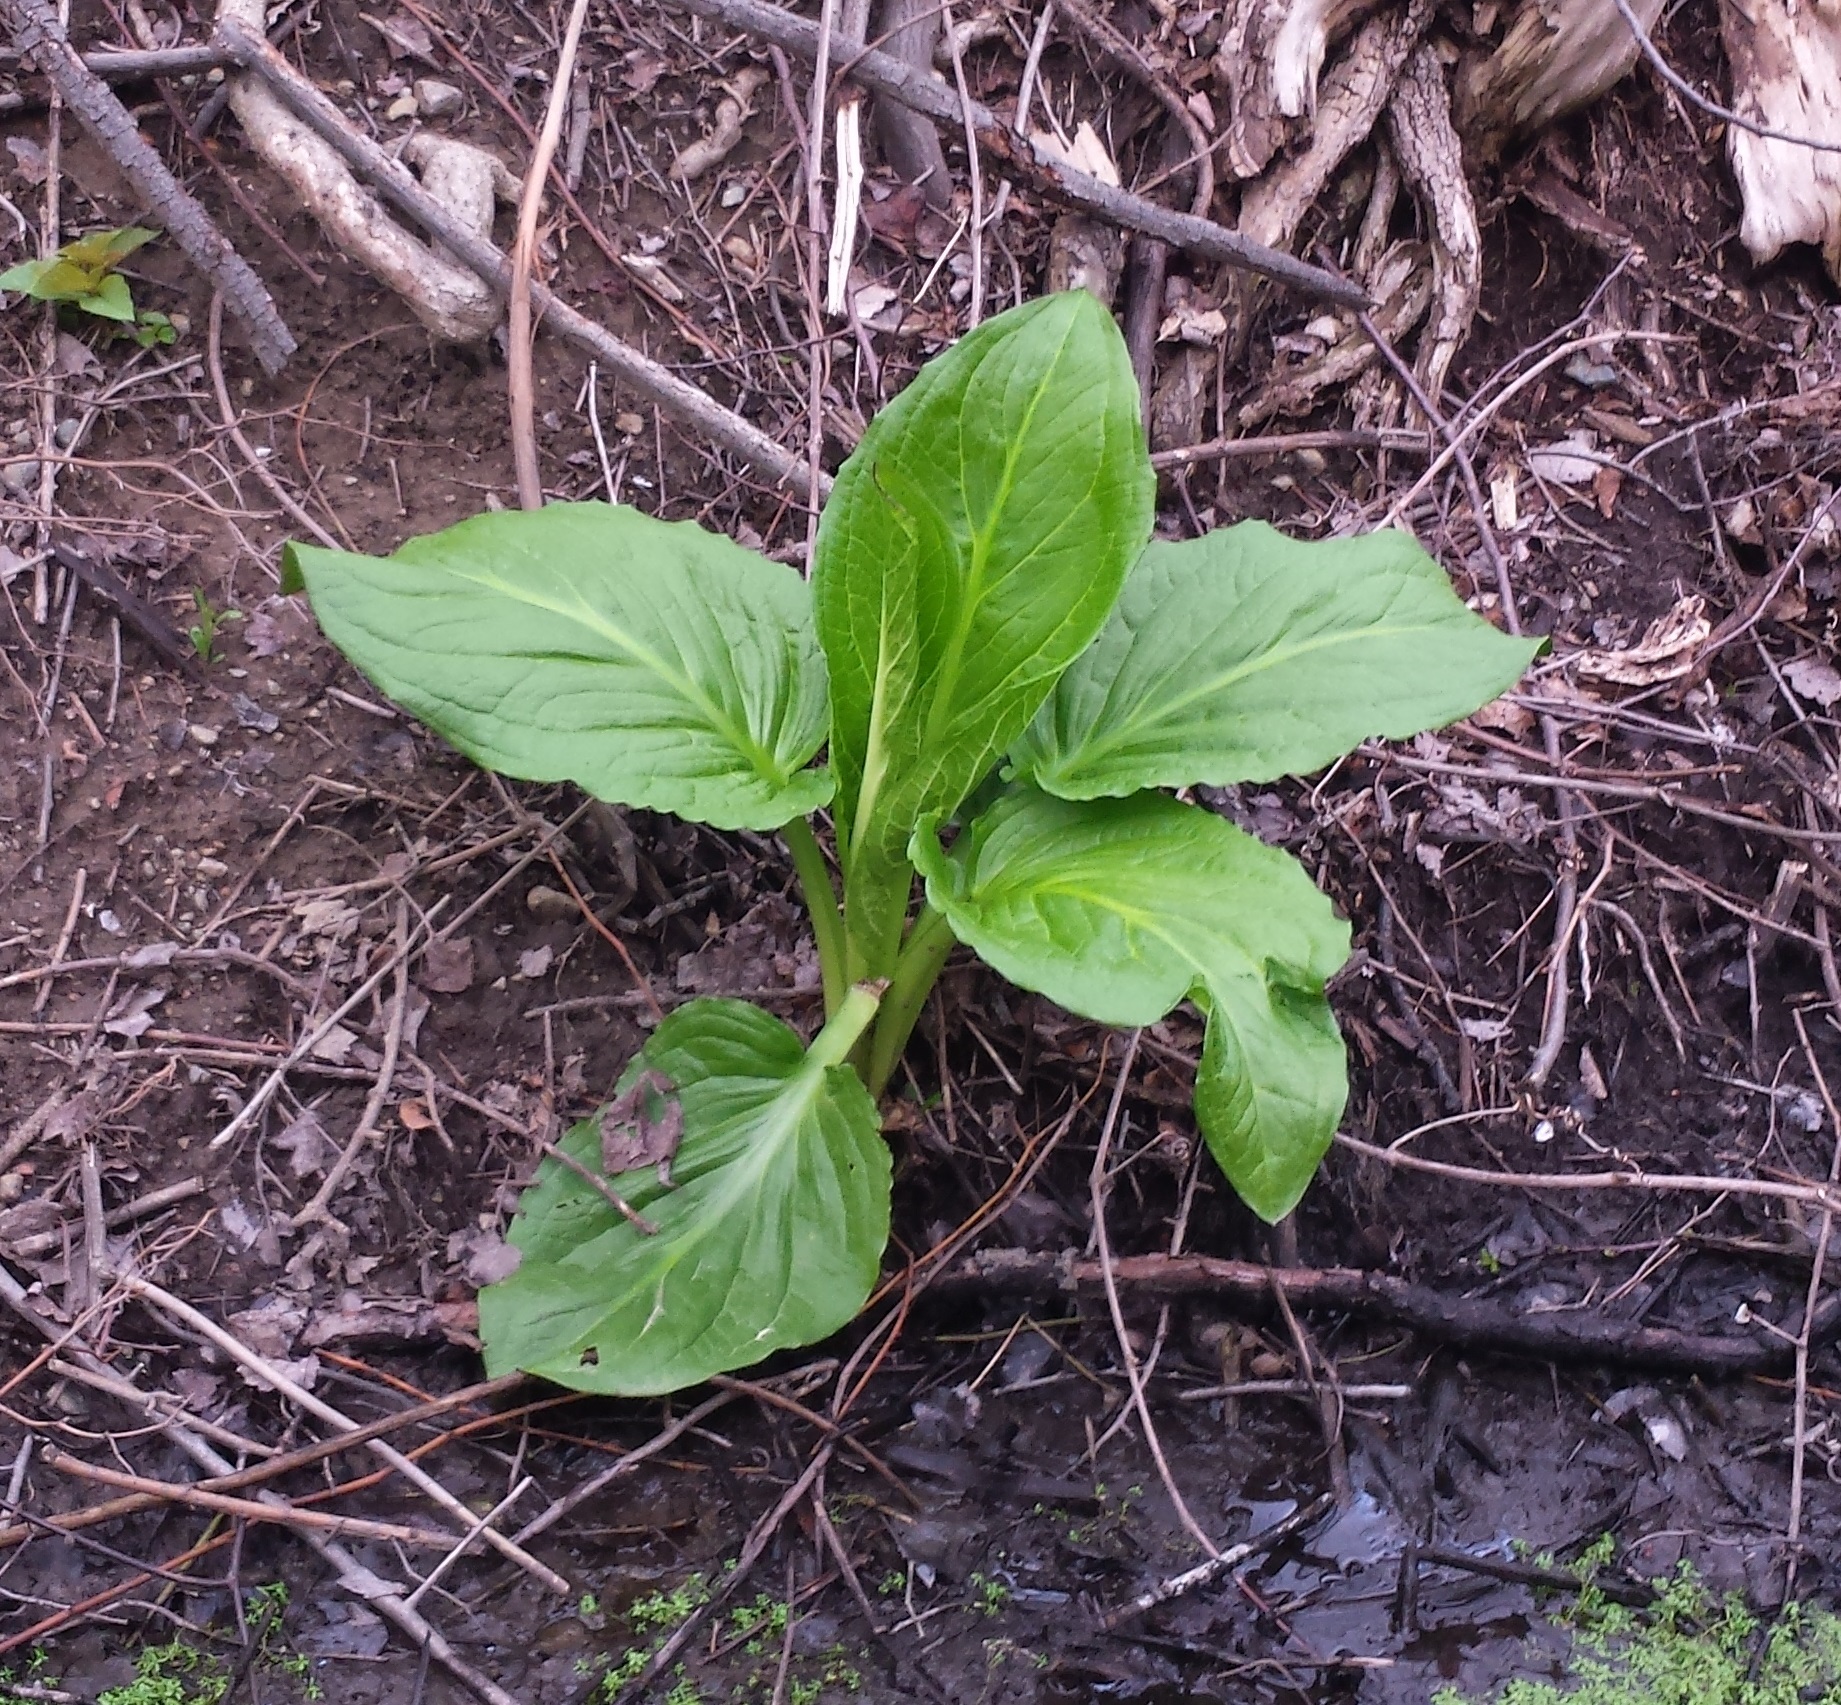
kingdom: Plantae
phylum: Tracheophyta
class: Liliopsida
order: Alismatales
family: Araceae
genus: Symplocarpus
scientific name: Symplocarpus foetidus
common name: Eastern skunk cabbage
